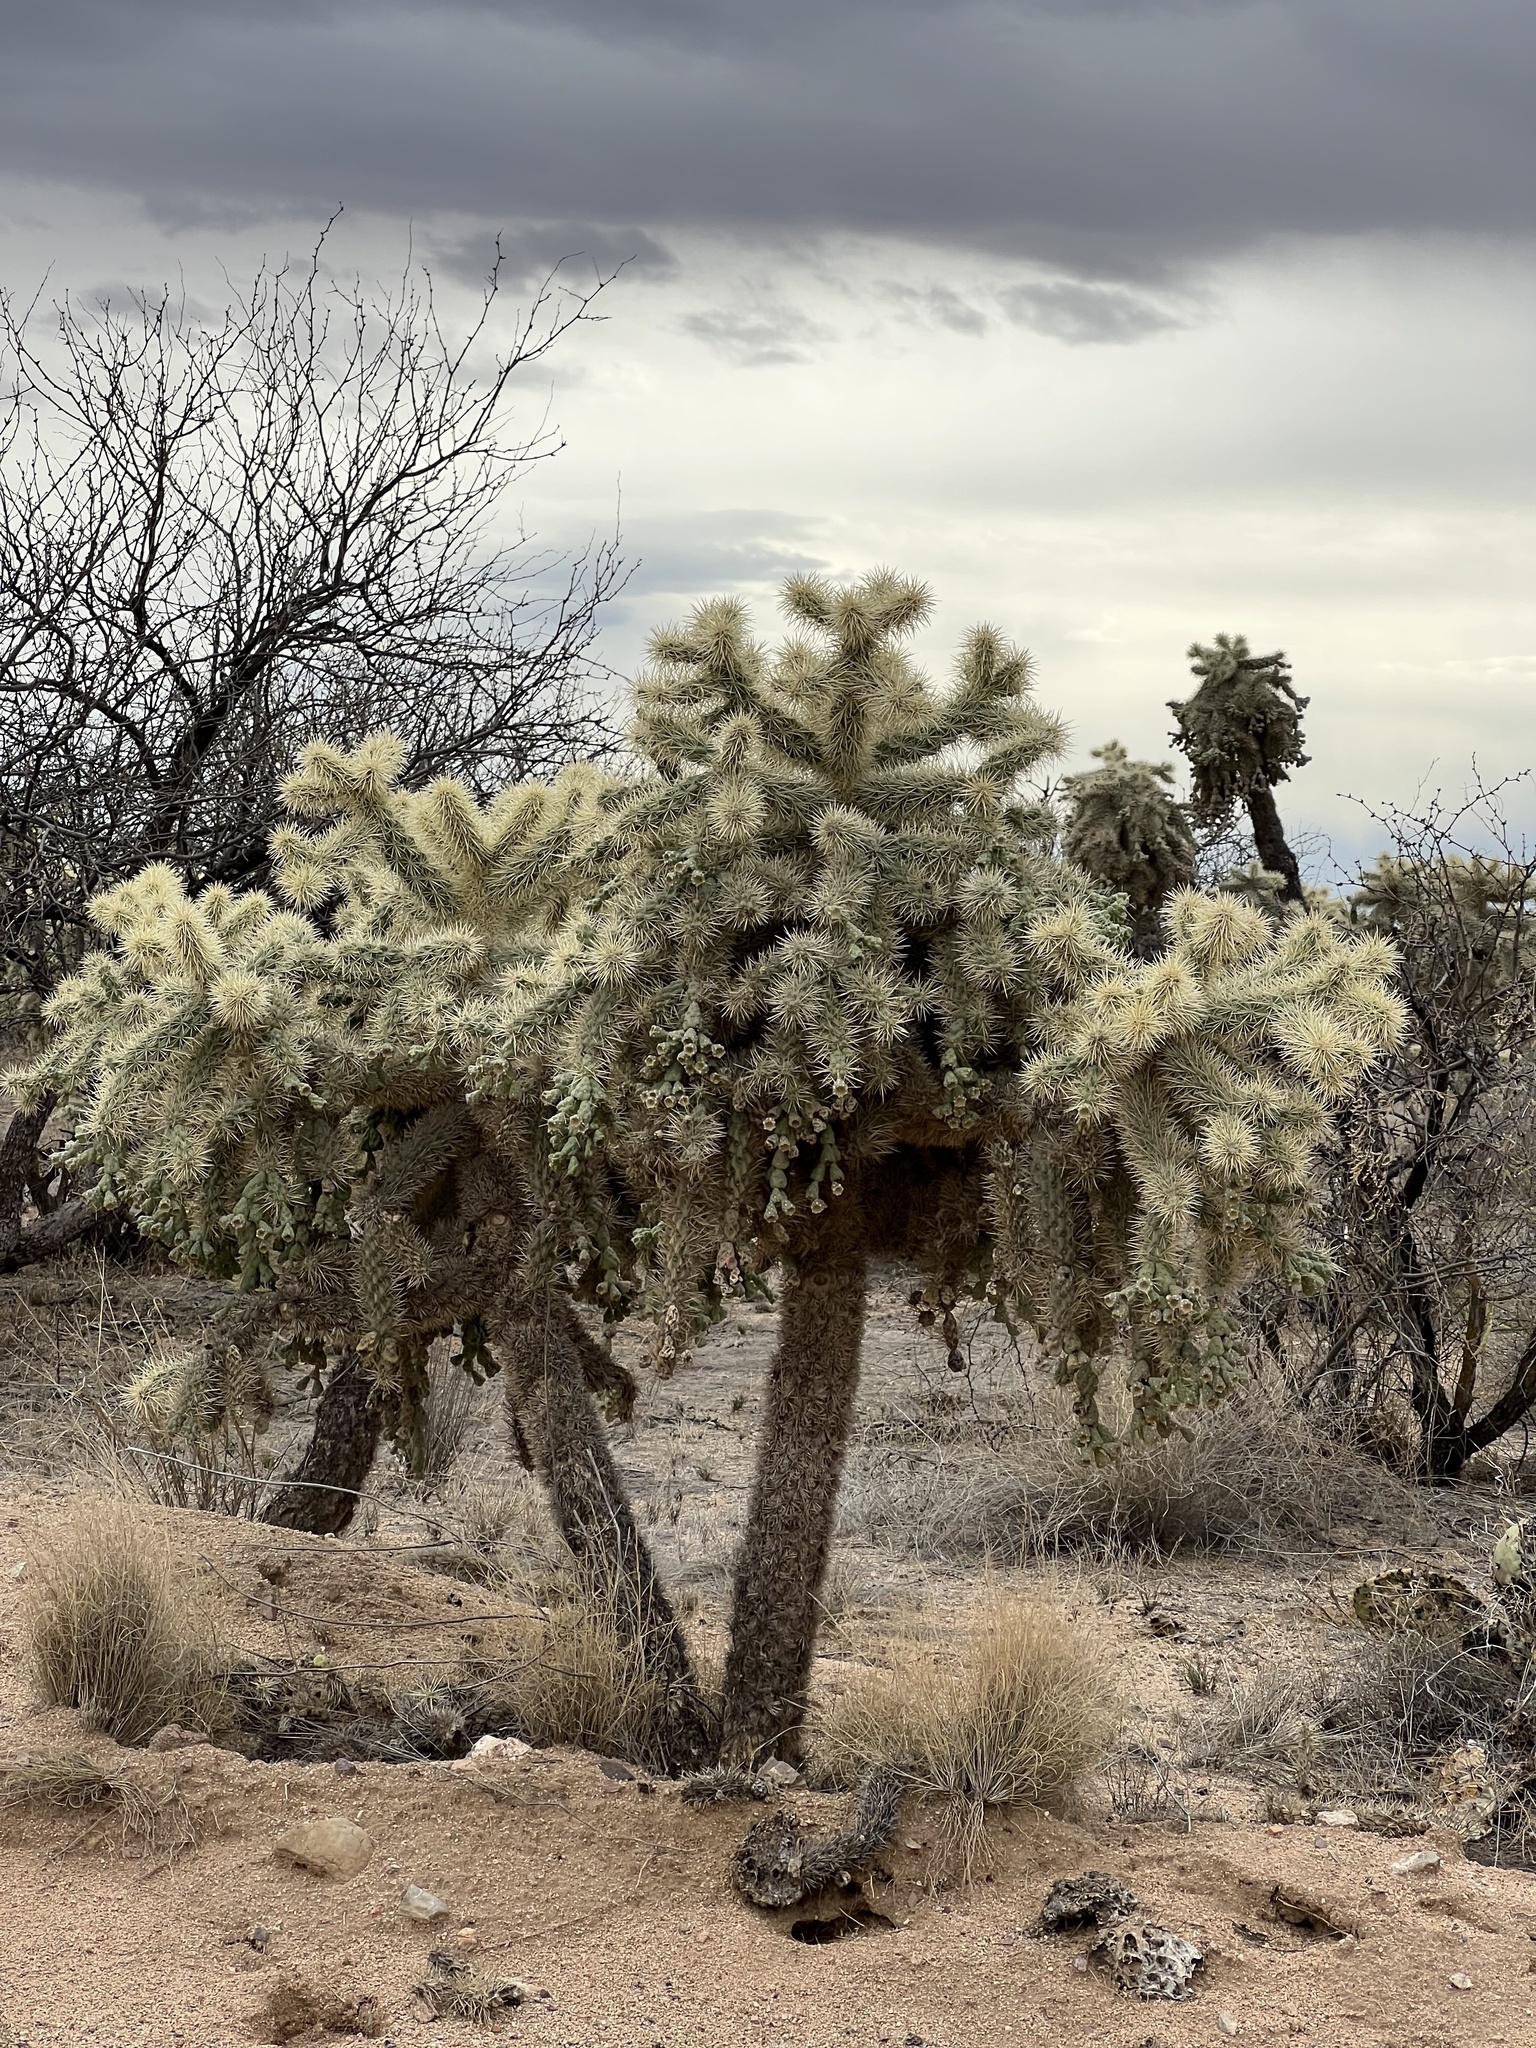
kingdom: Plantae
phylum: Tracheophyta
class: Magnoliopsida
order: Caryophyllales
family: Cactaceae
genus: Cylindropuntia
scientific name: Cylindropuntia fulgida
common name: Jumping cholla
